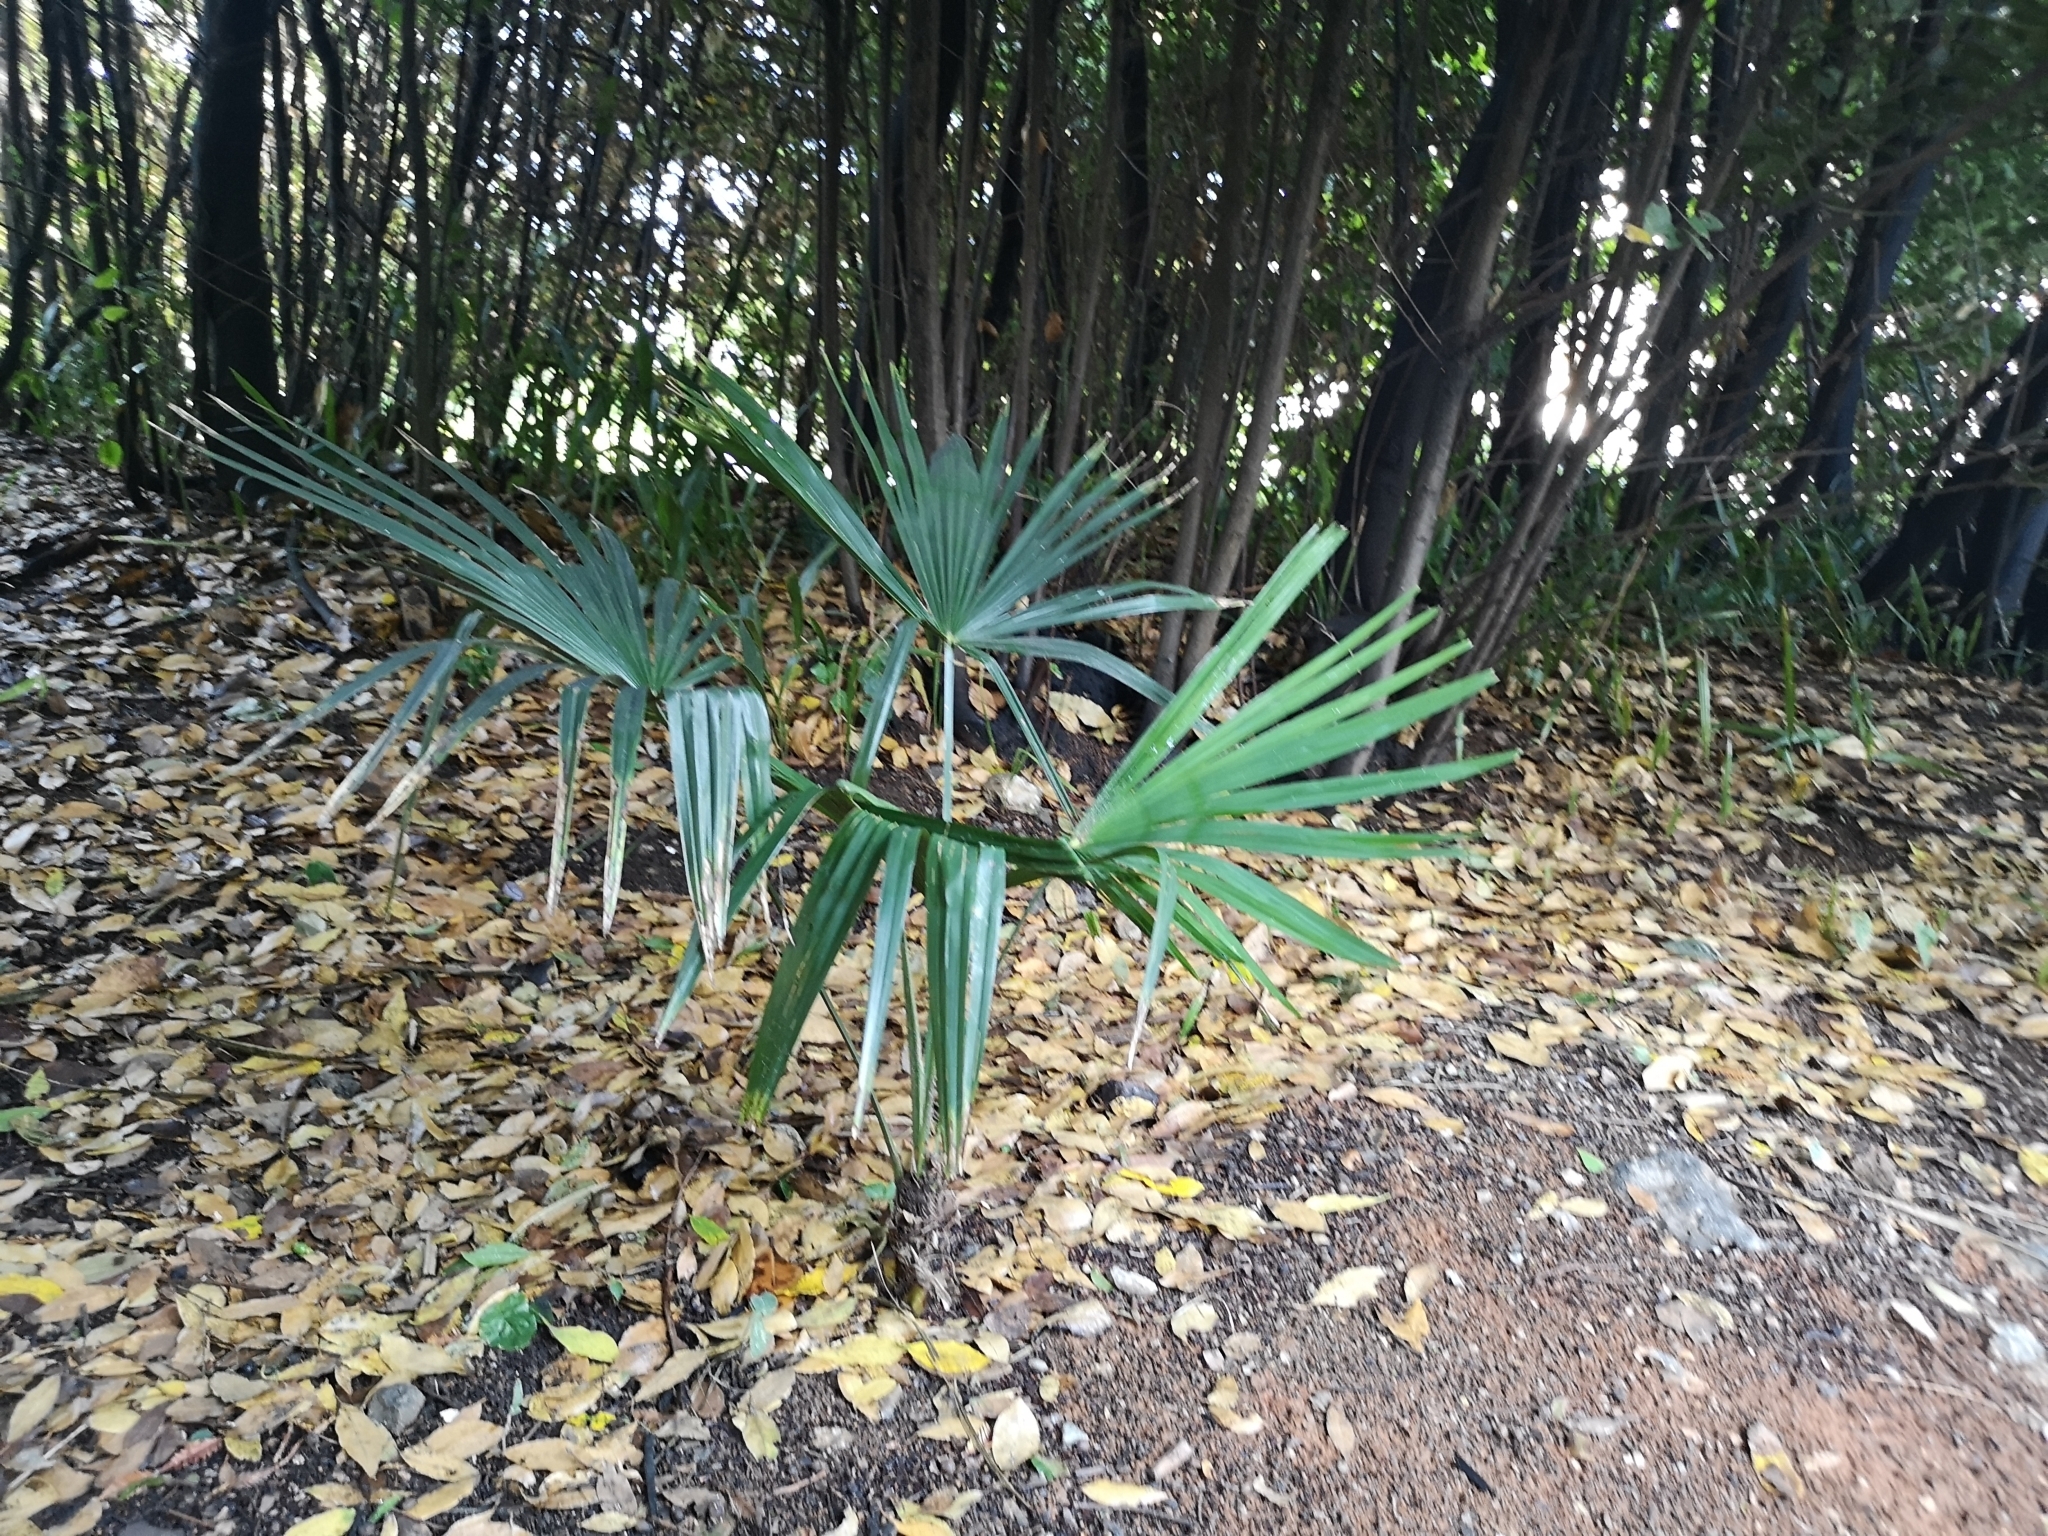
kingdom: Plantae
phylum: Tracheophyta
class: Liliopsida
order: Arecales
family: Arecaceae
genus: Trachycarpus
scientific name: Trachycarpus fortunei
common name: Chusan palm
